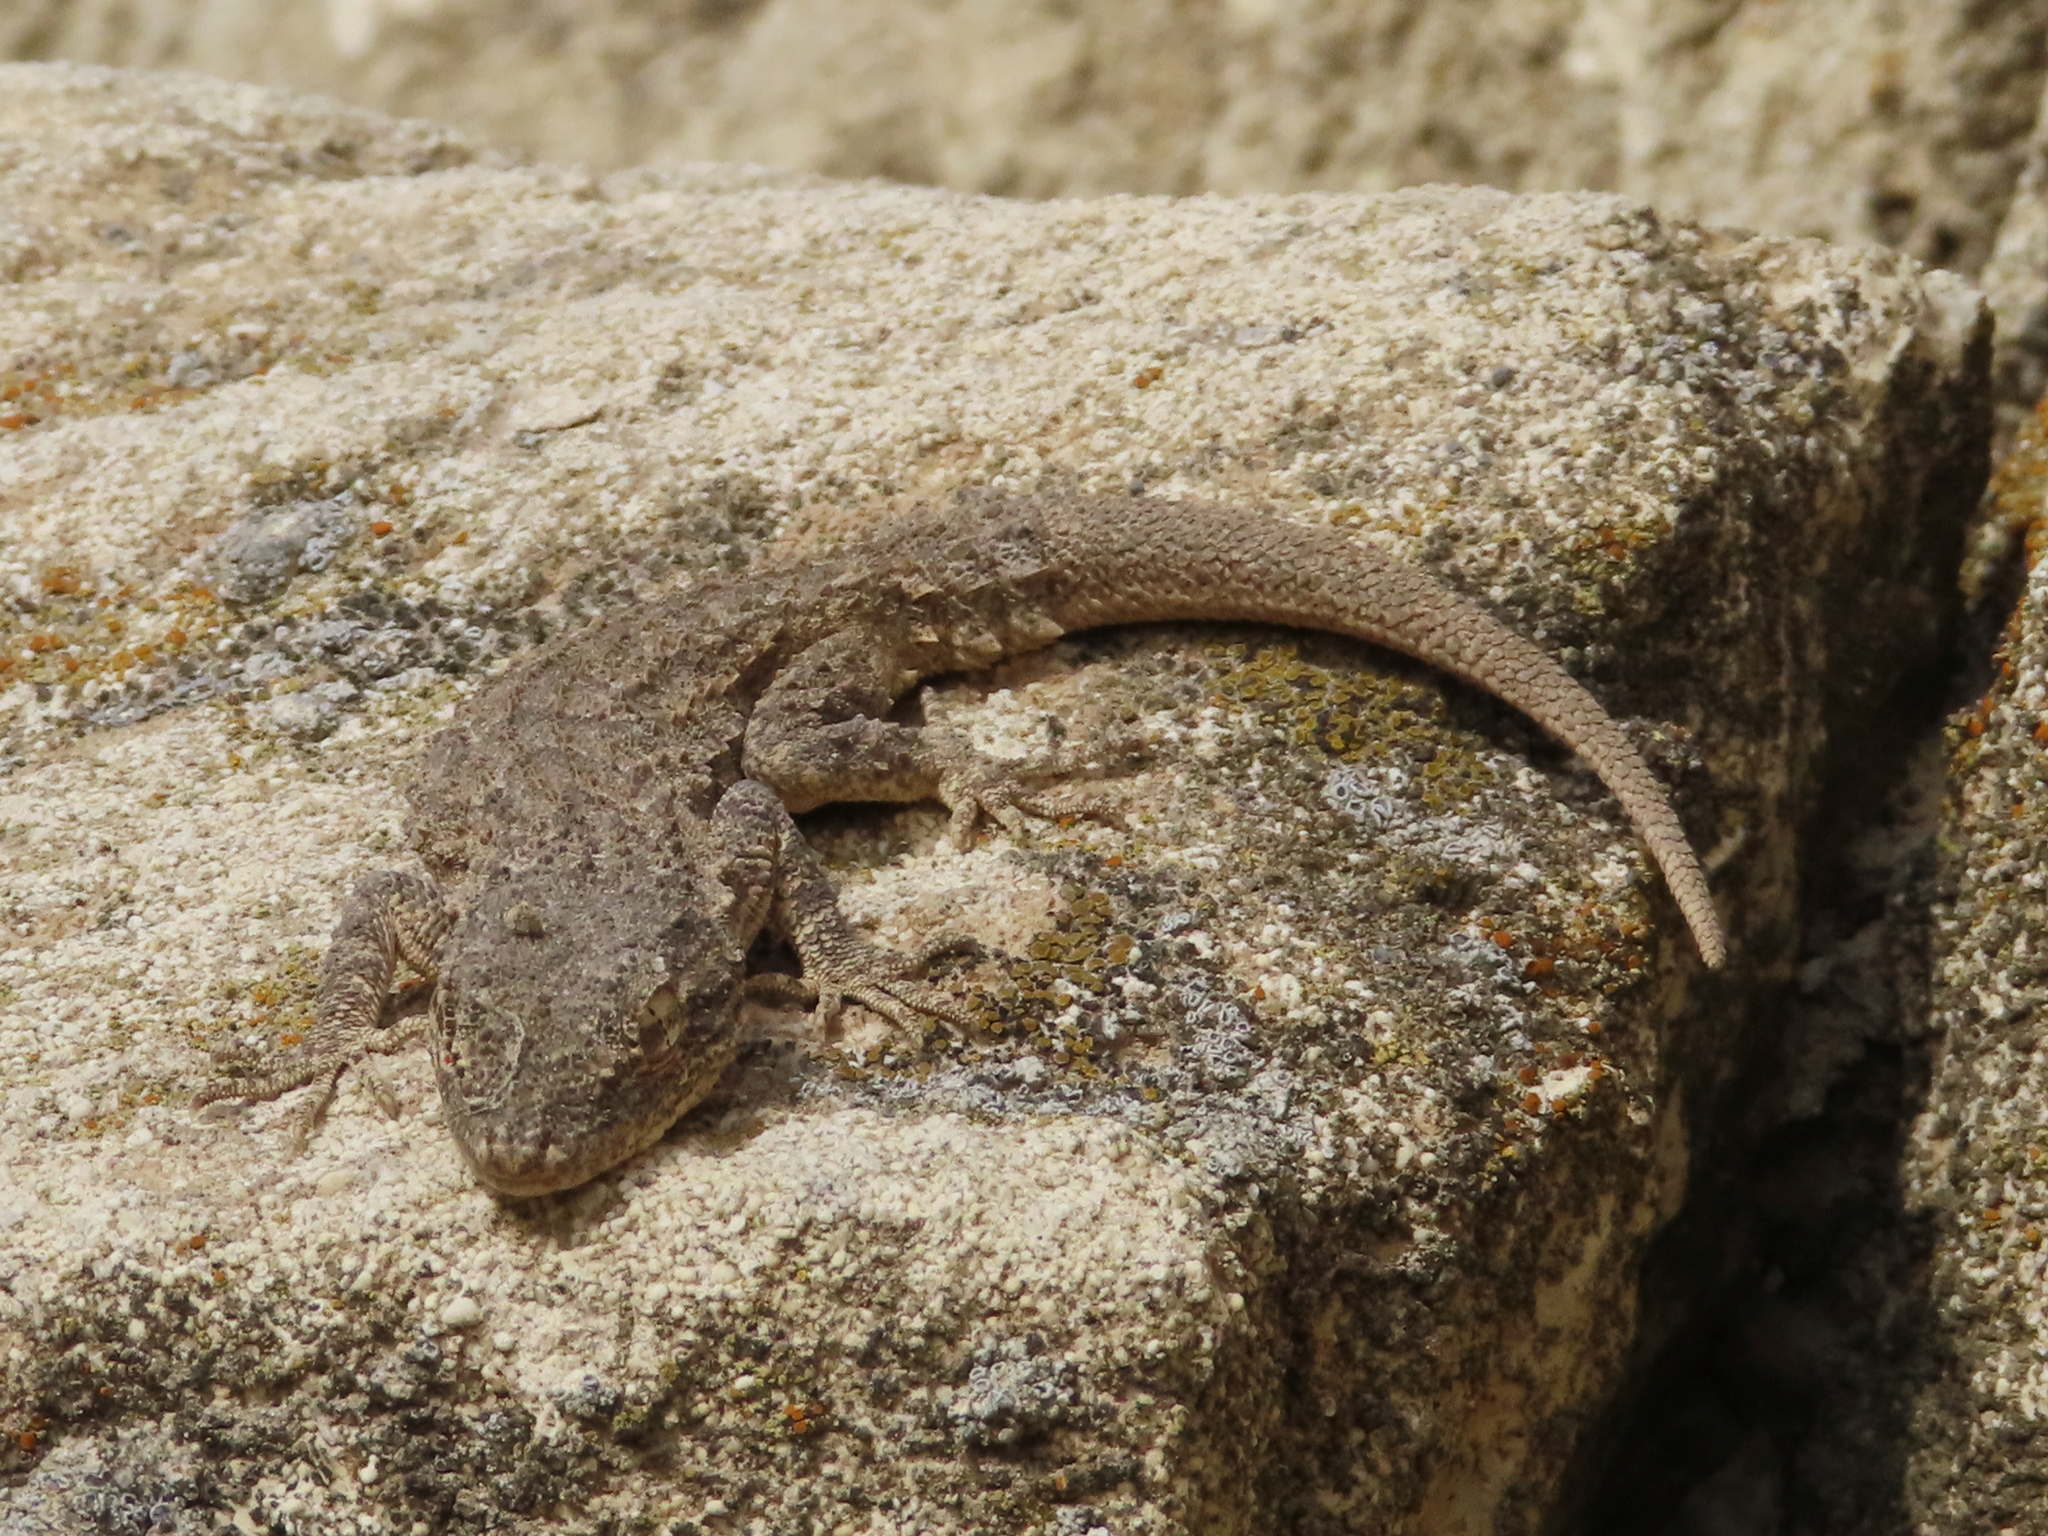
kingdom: Animalia
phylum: Chordata
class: Squamata
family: Gekkonidae
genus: Mediodactylus
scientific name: Mediodactylus russowii
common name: Grey thin-toed gecko
